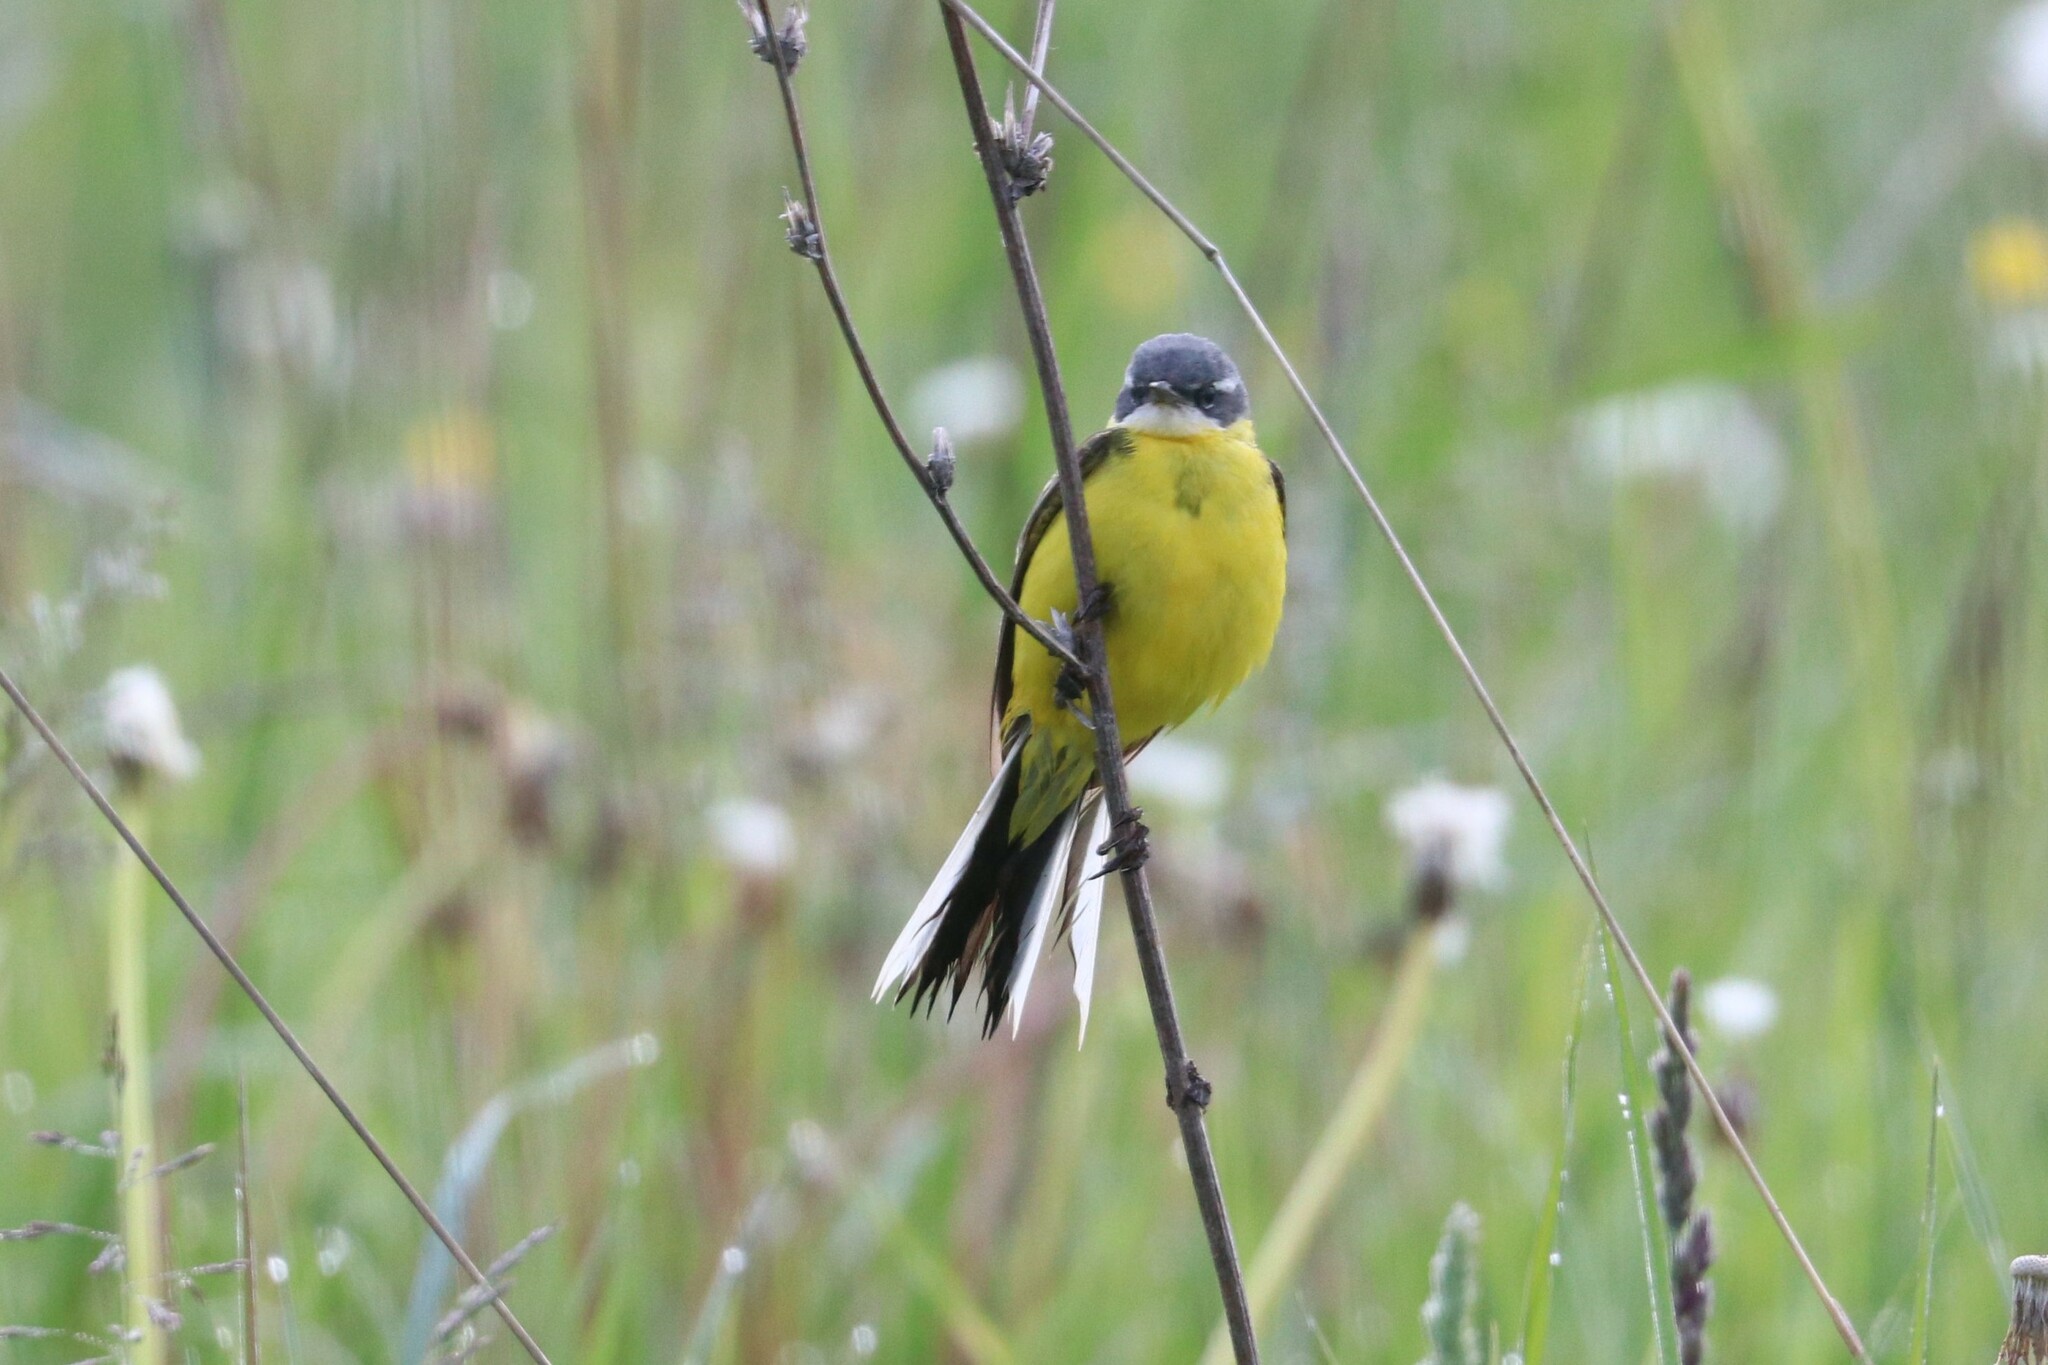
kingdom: Animalia
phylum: Chordata
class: Aves
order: Passeriformes
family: Motacillidae
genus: Motacilla
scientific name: Motacilla flava
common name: Western yellow wagtail
